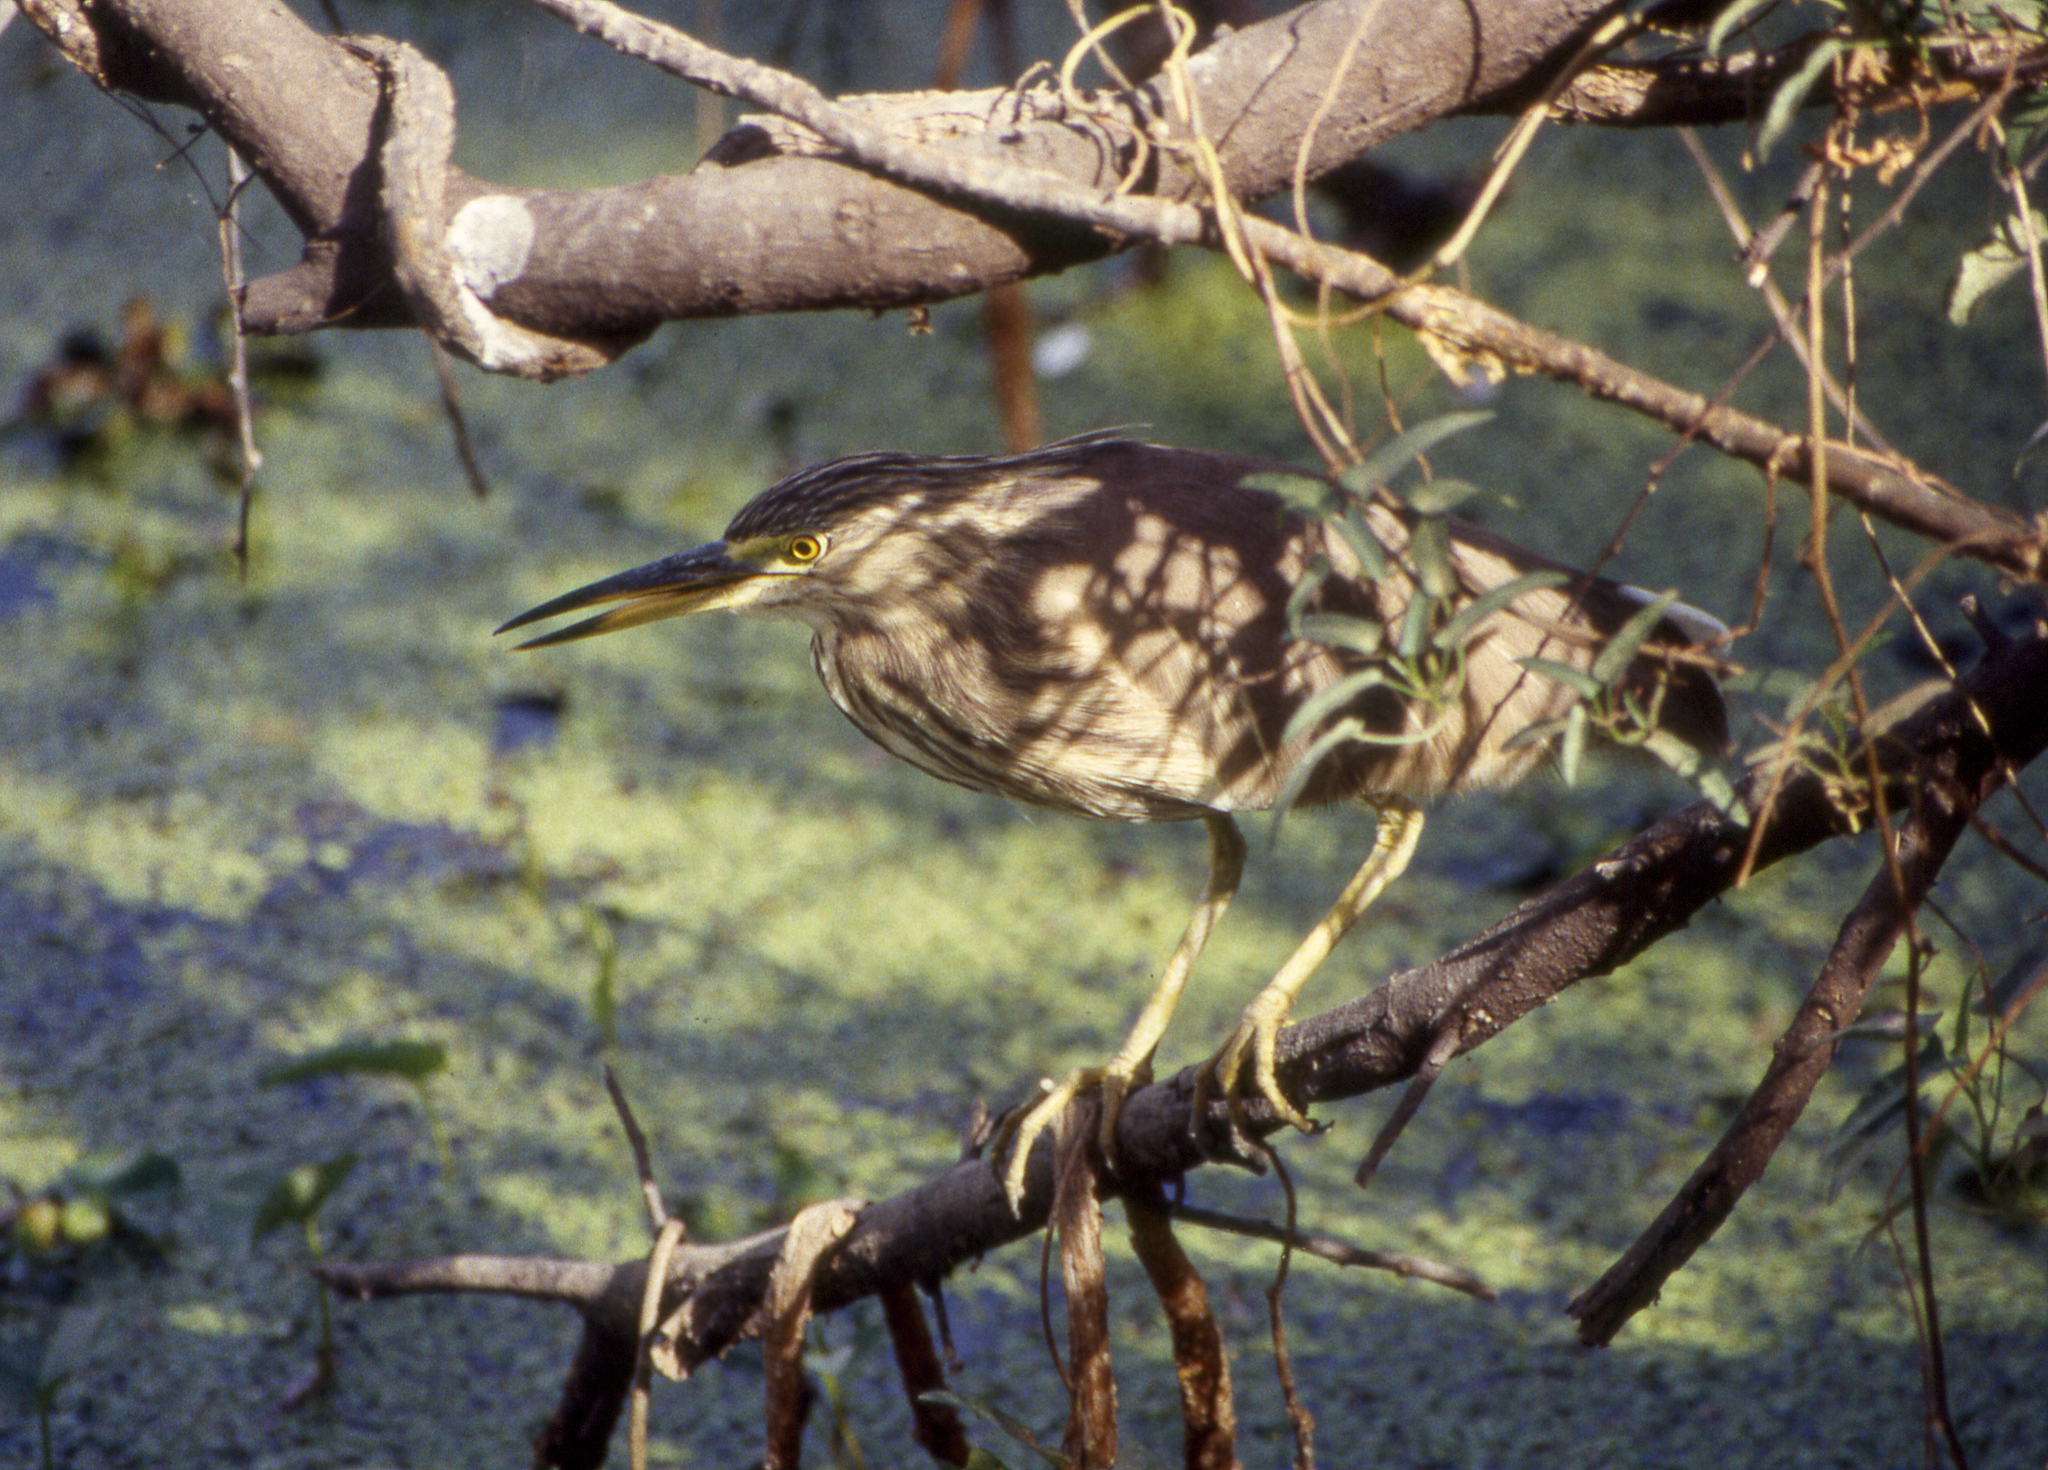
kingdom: Animalia
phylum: Chordata
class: Aves
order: Pelecaniformes
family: Ardeidae
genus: Ardeola
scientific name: Ardeola grayii
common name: Indian pond heron
